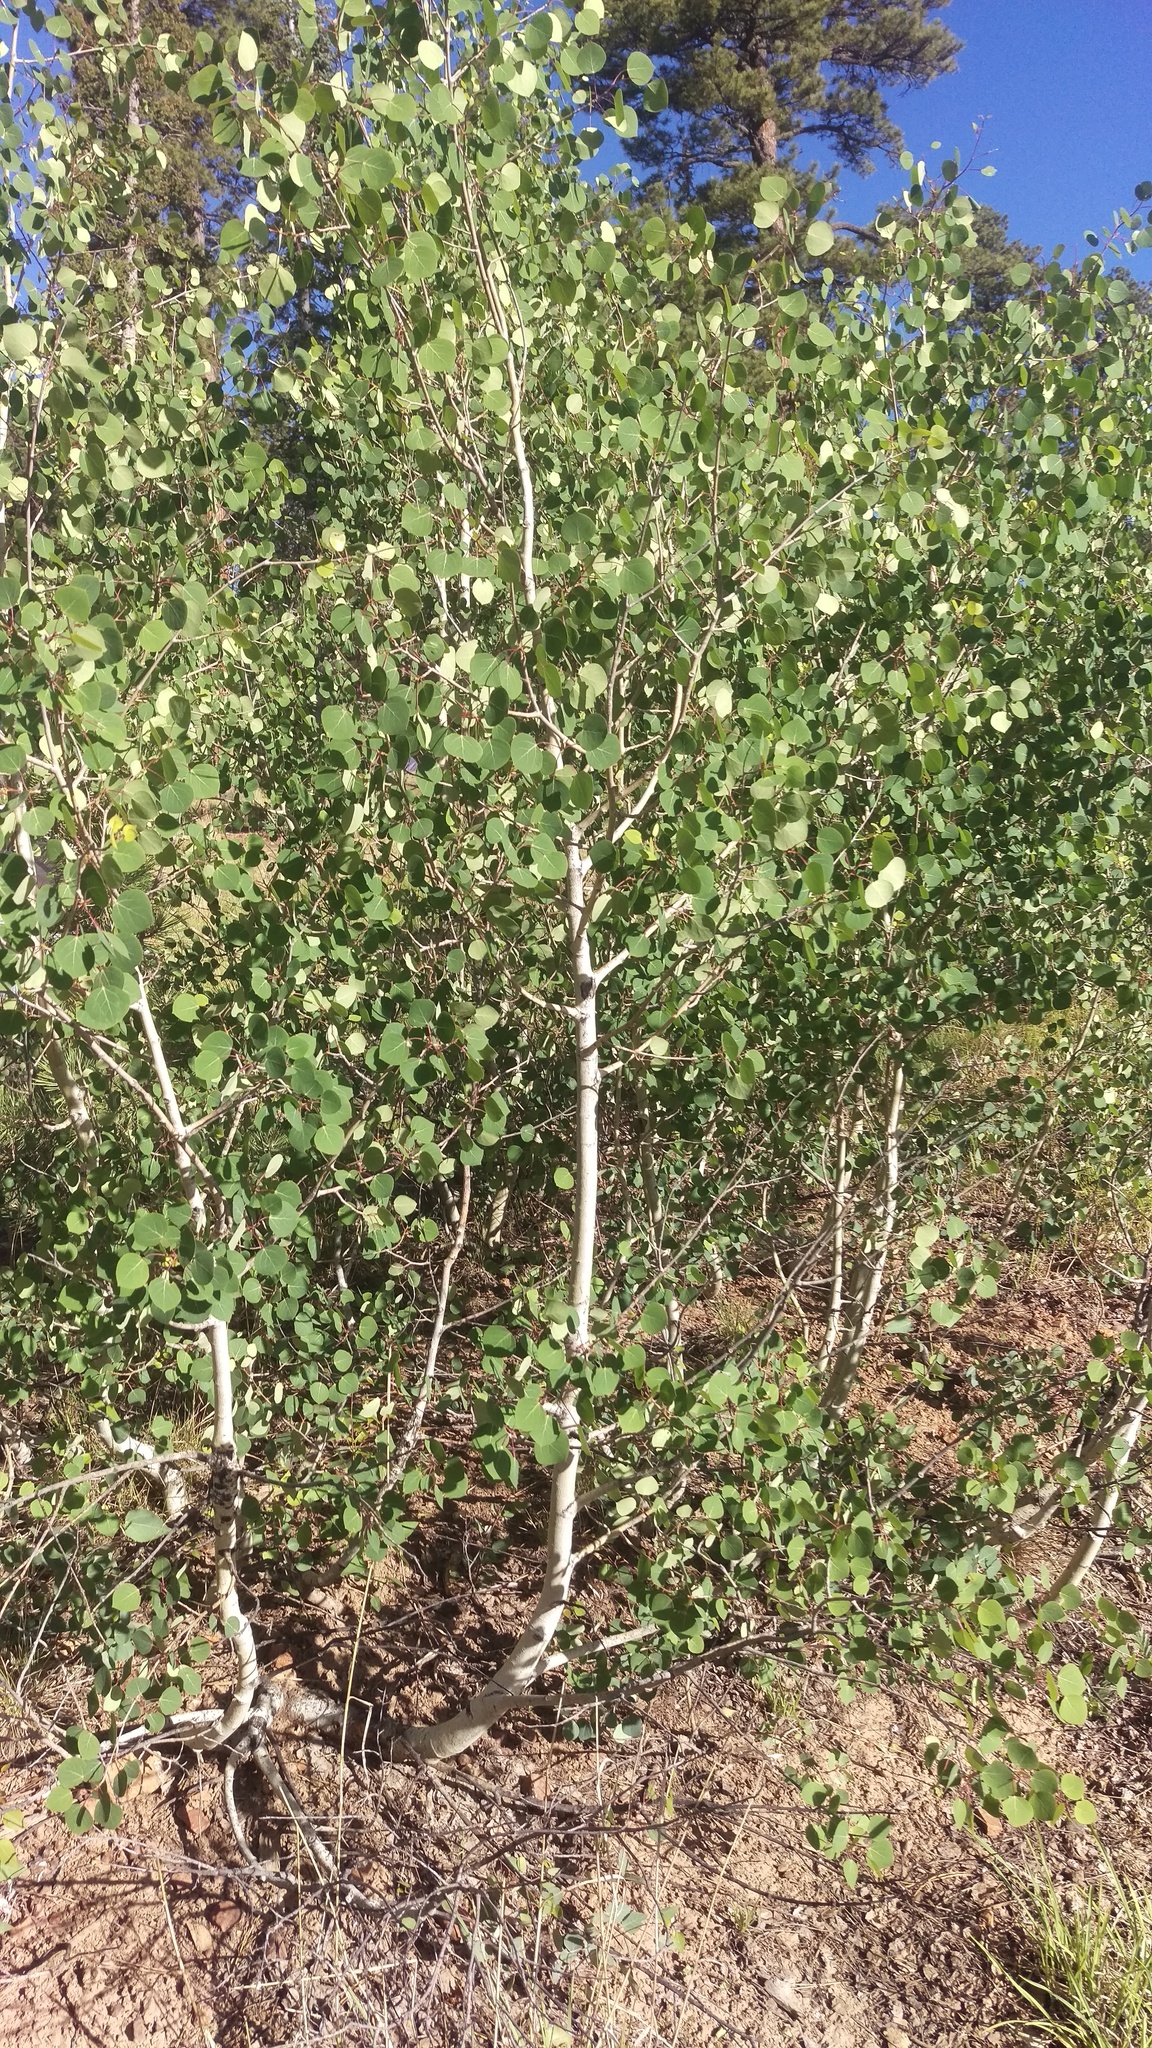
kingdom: Plantae
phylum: Tracheophyta
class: Magnoliopsida
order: Malpighiales
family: Salicaceae
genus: Populus
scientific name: Populus tremuloides
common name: Quaking aspen
